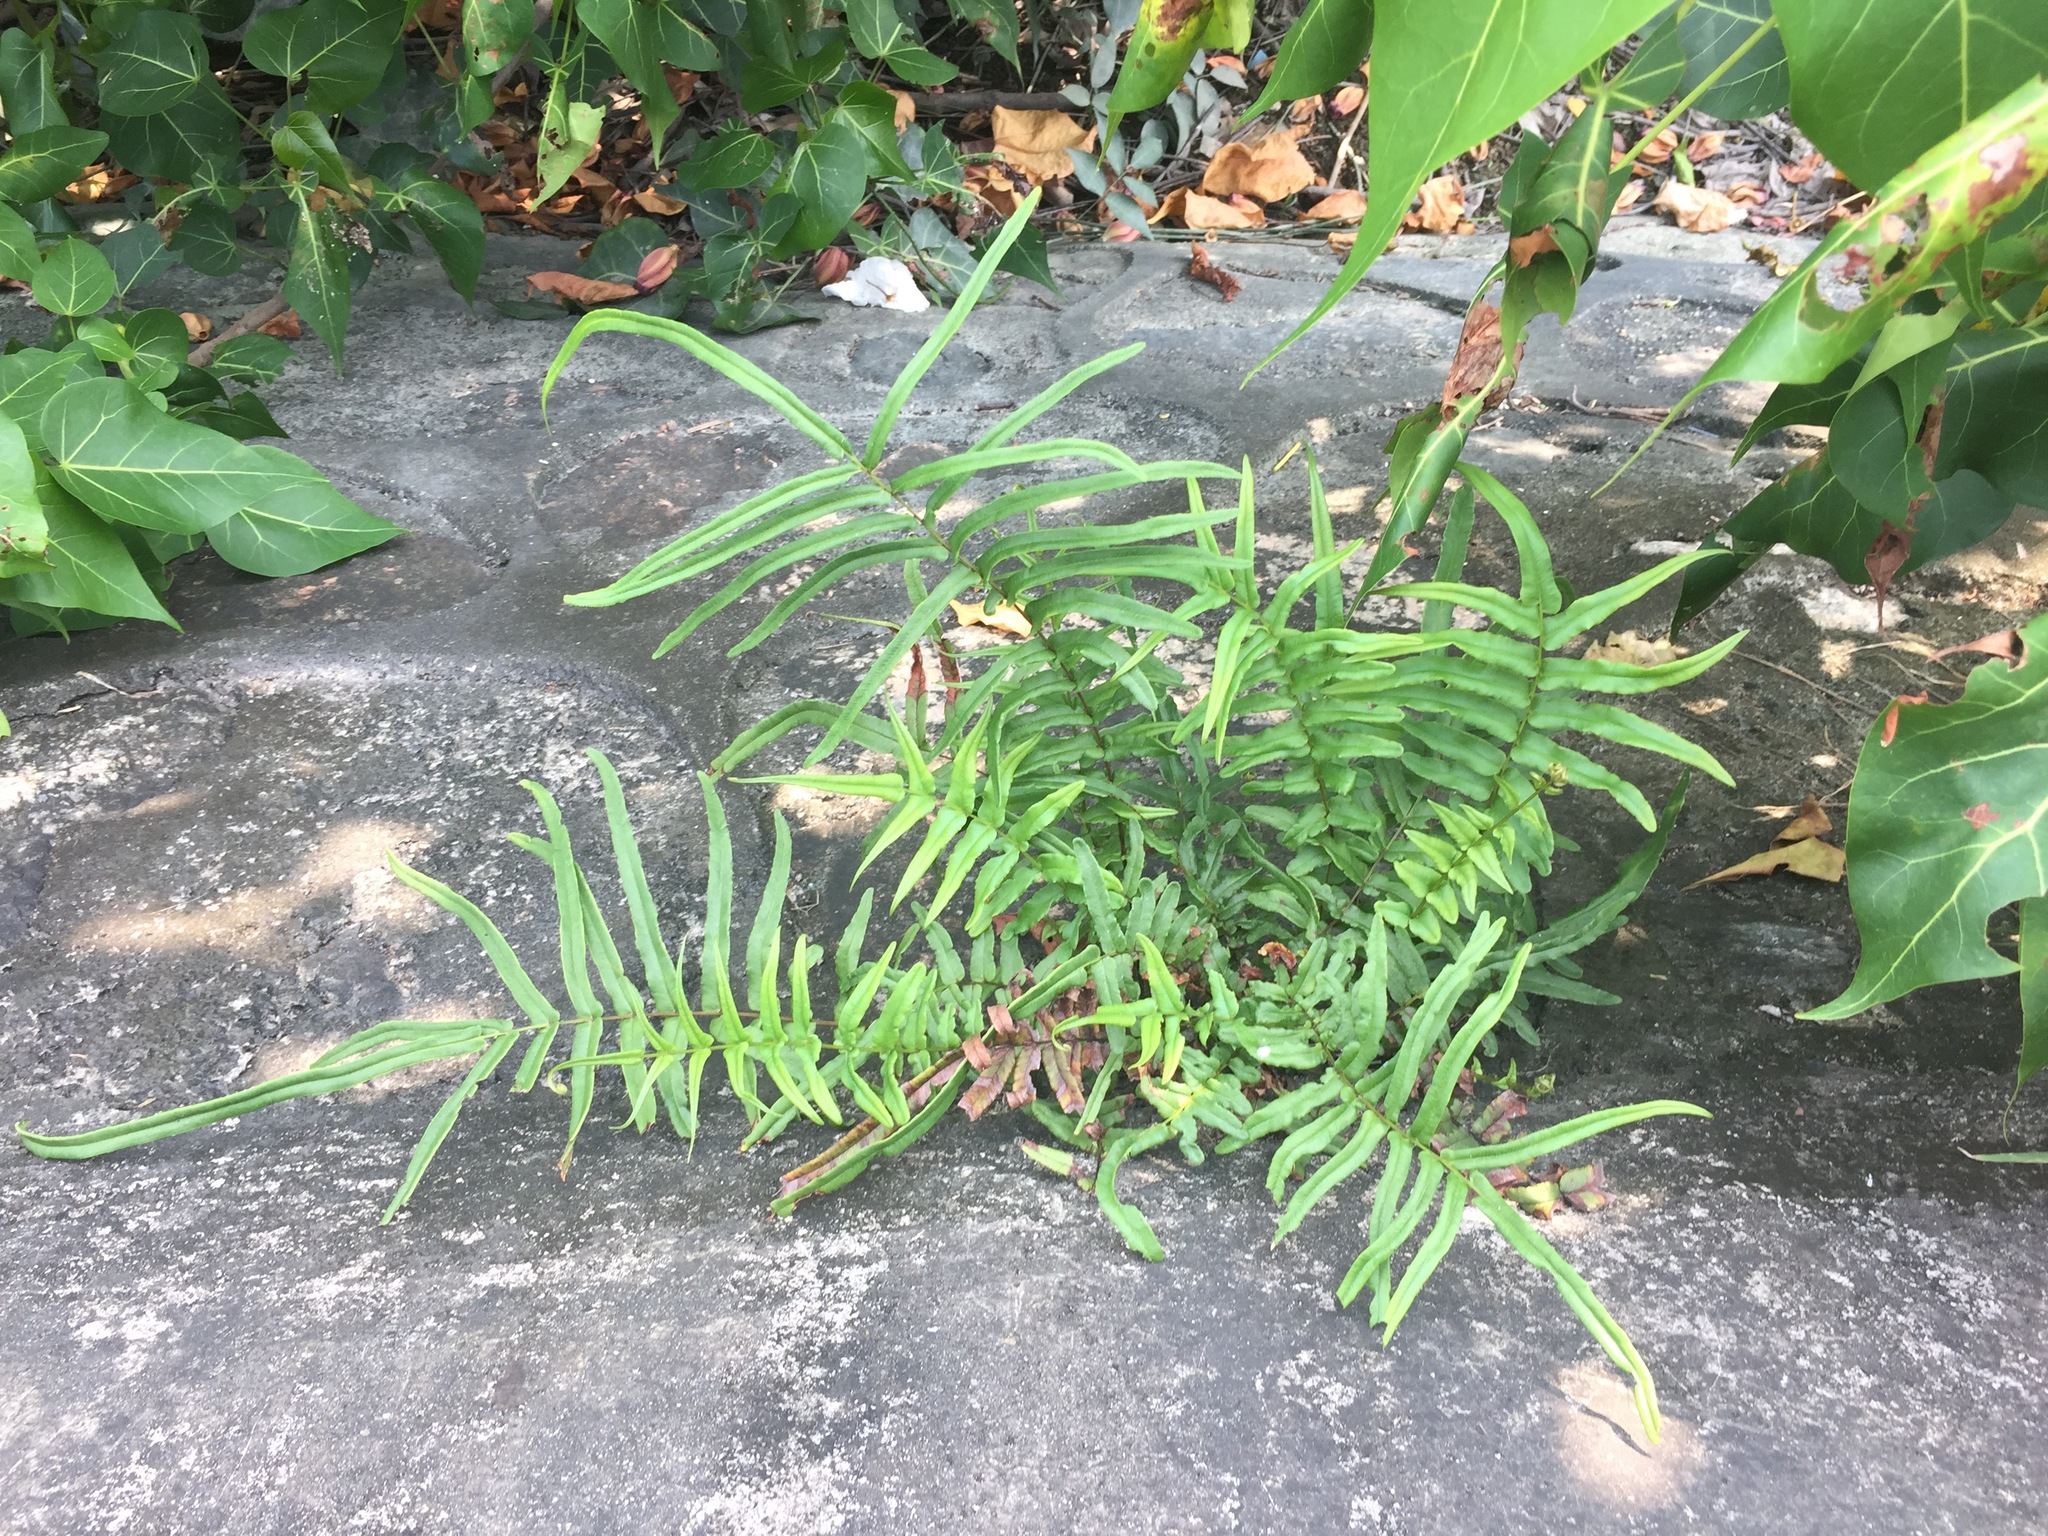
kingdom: Plantae
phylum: Tracheophyta
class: Polypodiopsida
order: Polypodiales
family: Pteridaceae
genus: Pteris
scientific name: Pteris vittata
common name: Ladder brake
